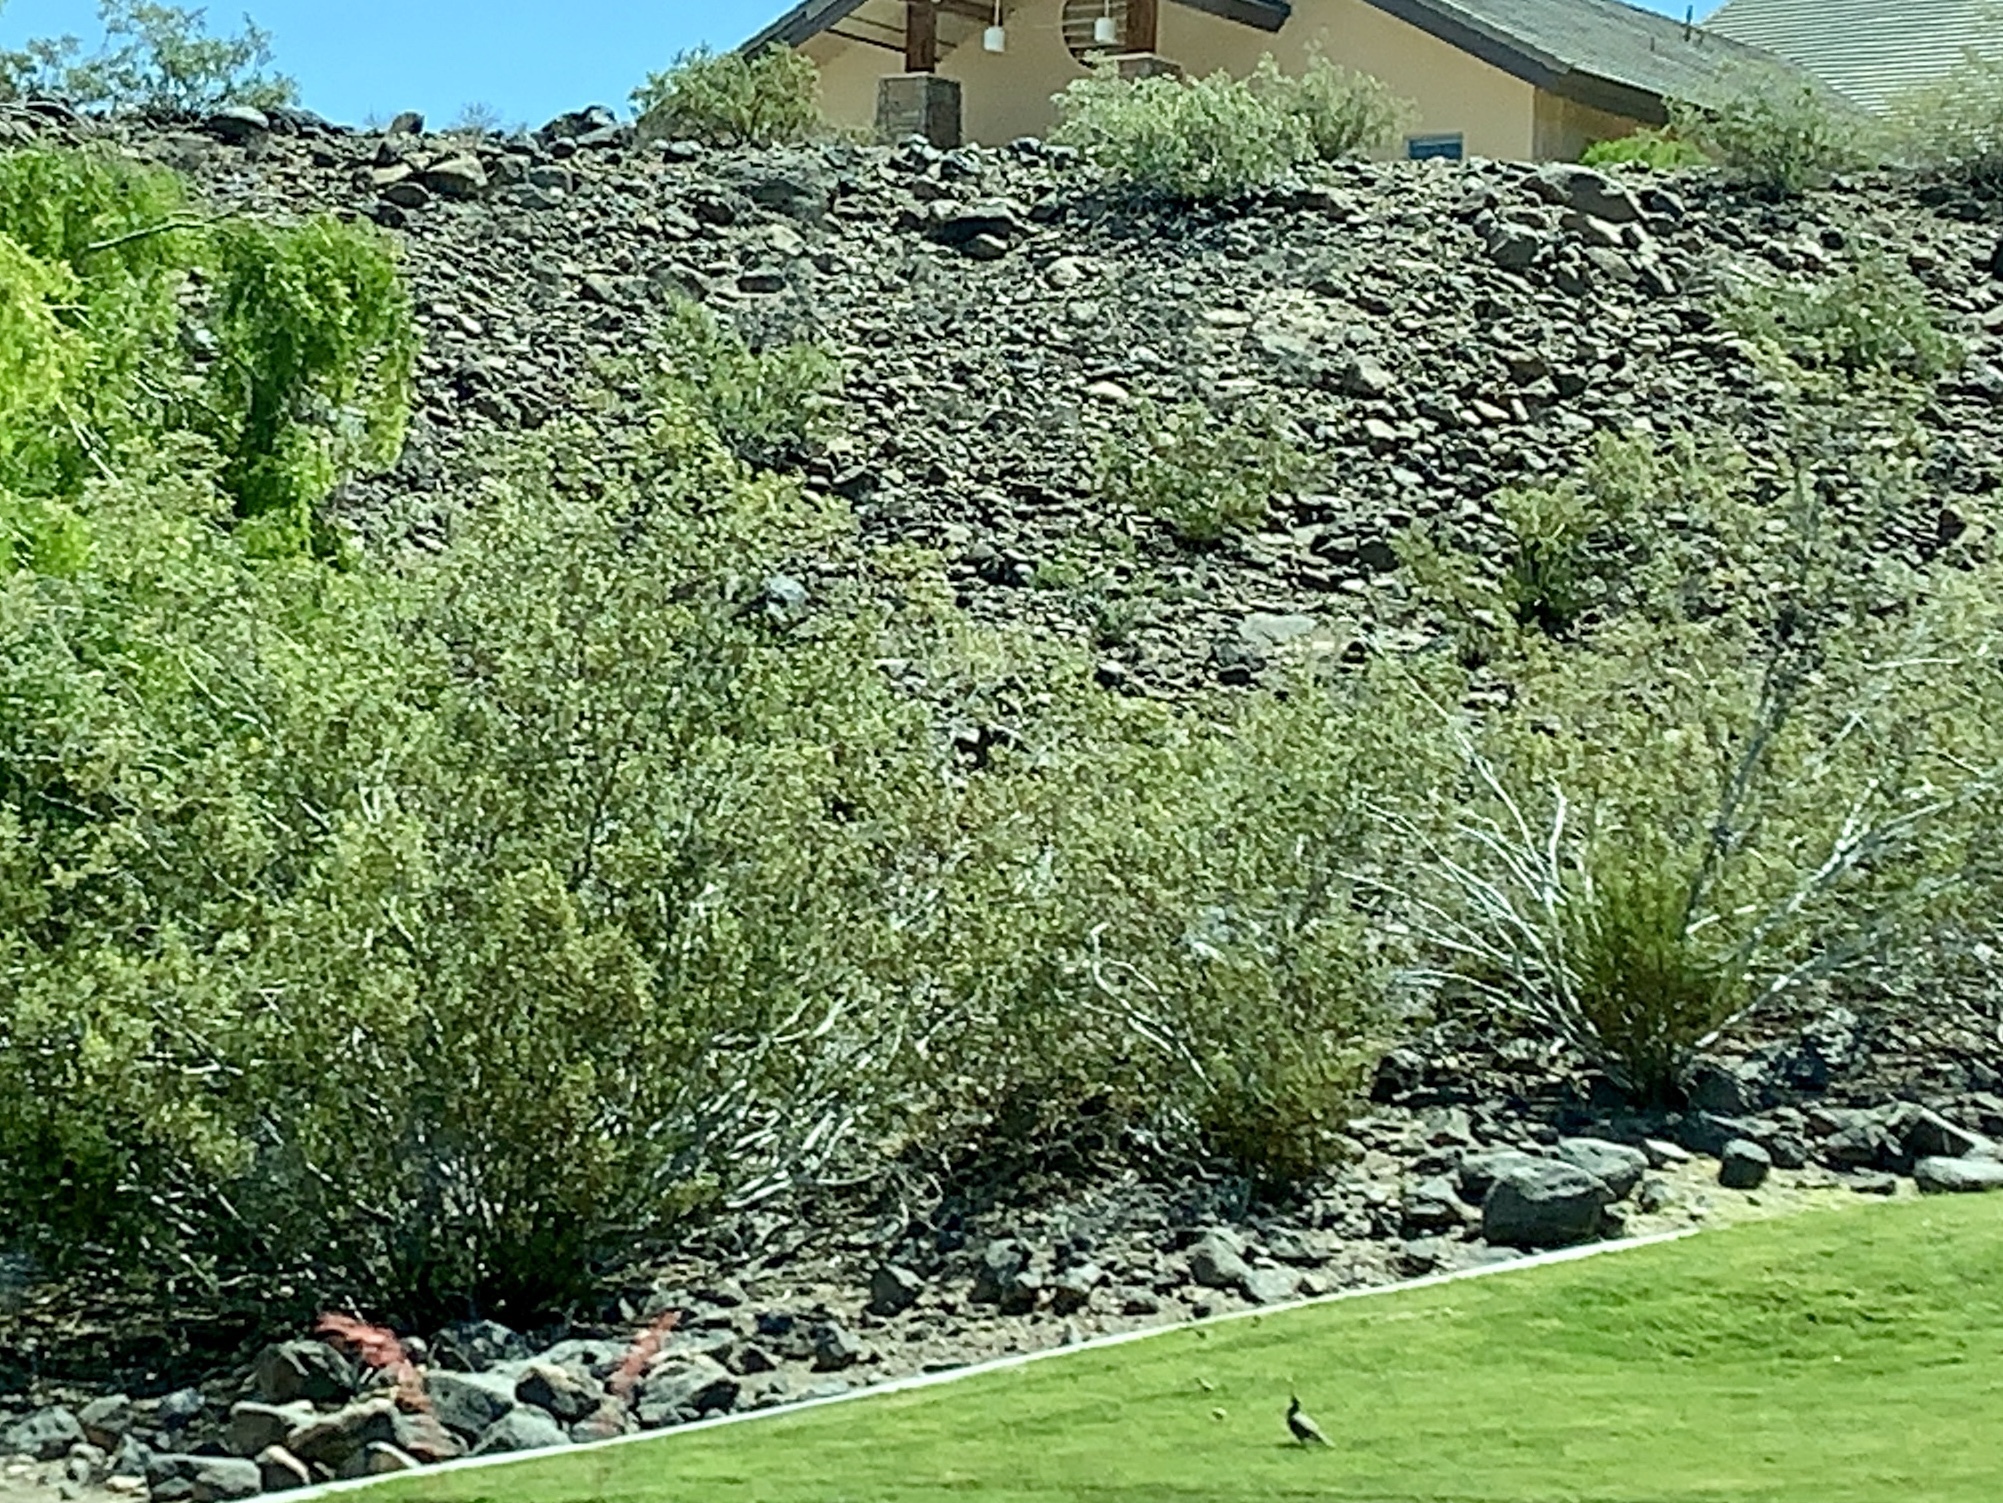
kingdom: Plantae
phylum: Tracheophyta
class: Magnoliopsida
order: Zygophyllales
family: Zygophyllaceae
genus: Larrea
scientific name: Larrea tridentata
